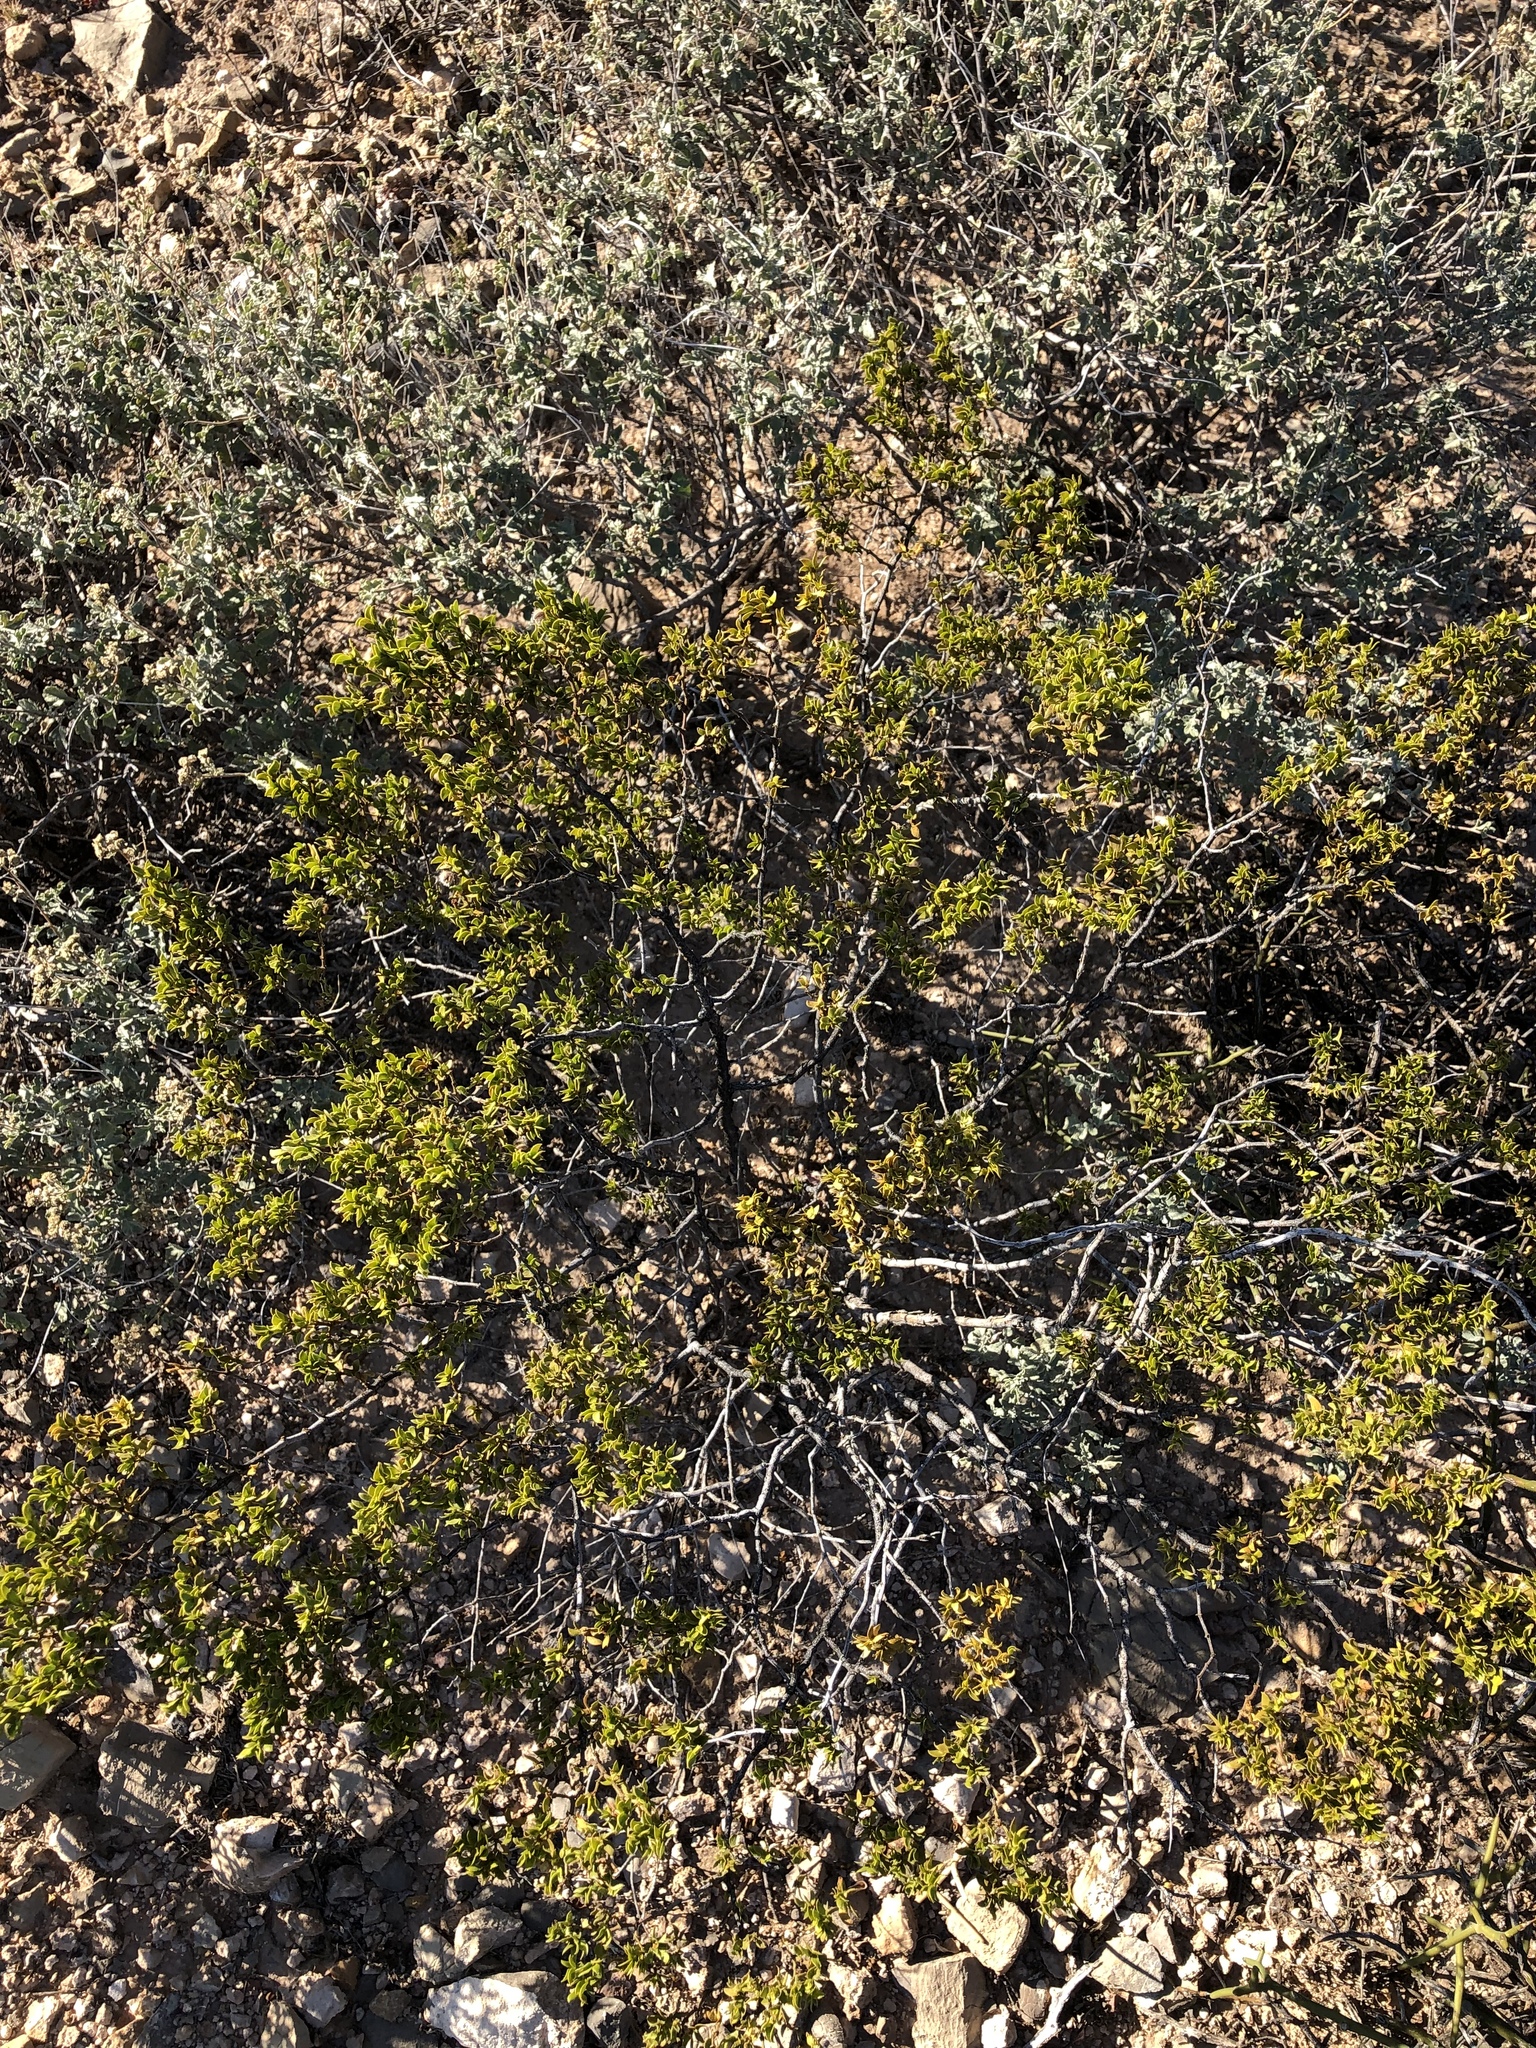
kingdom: Plantae
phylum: Tracheophyta
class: Magnoliopsida
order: Zygophyllales
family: Zygophyllaceae
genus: Larrea
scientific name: Larrea tridentata
